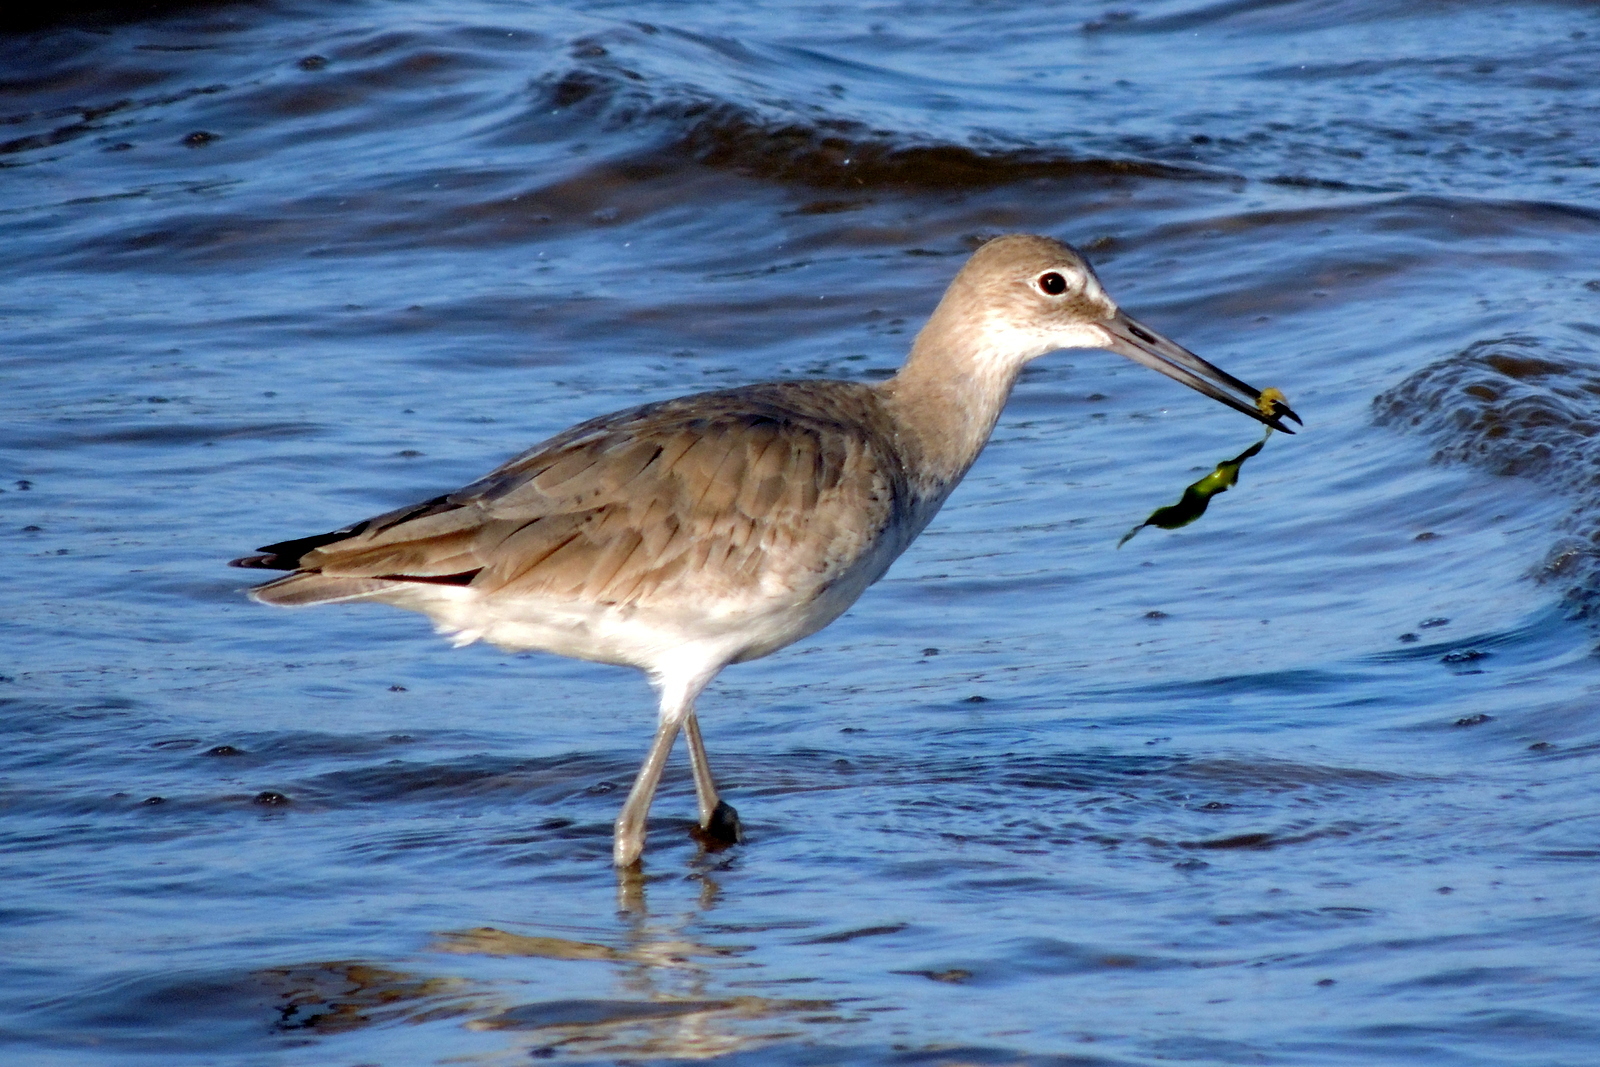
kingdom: Animalia
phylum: Chordata
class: Aves
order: Charadriiformes
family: Scolopacidae
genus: Tringa
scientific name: Tringa semipalmata
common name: Willet
